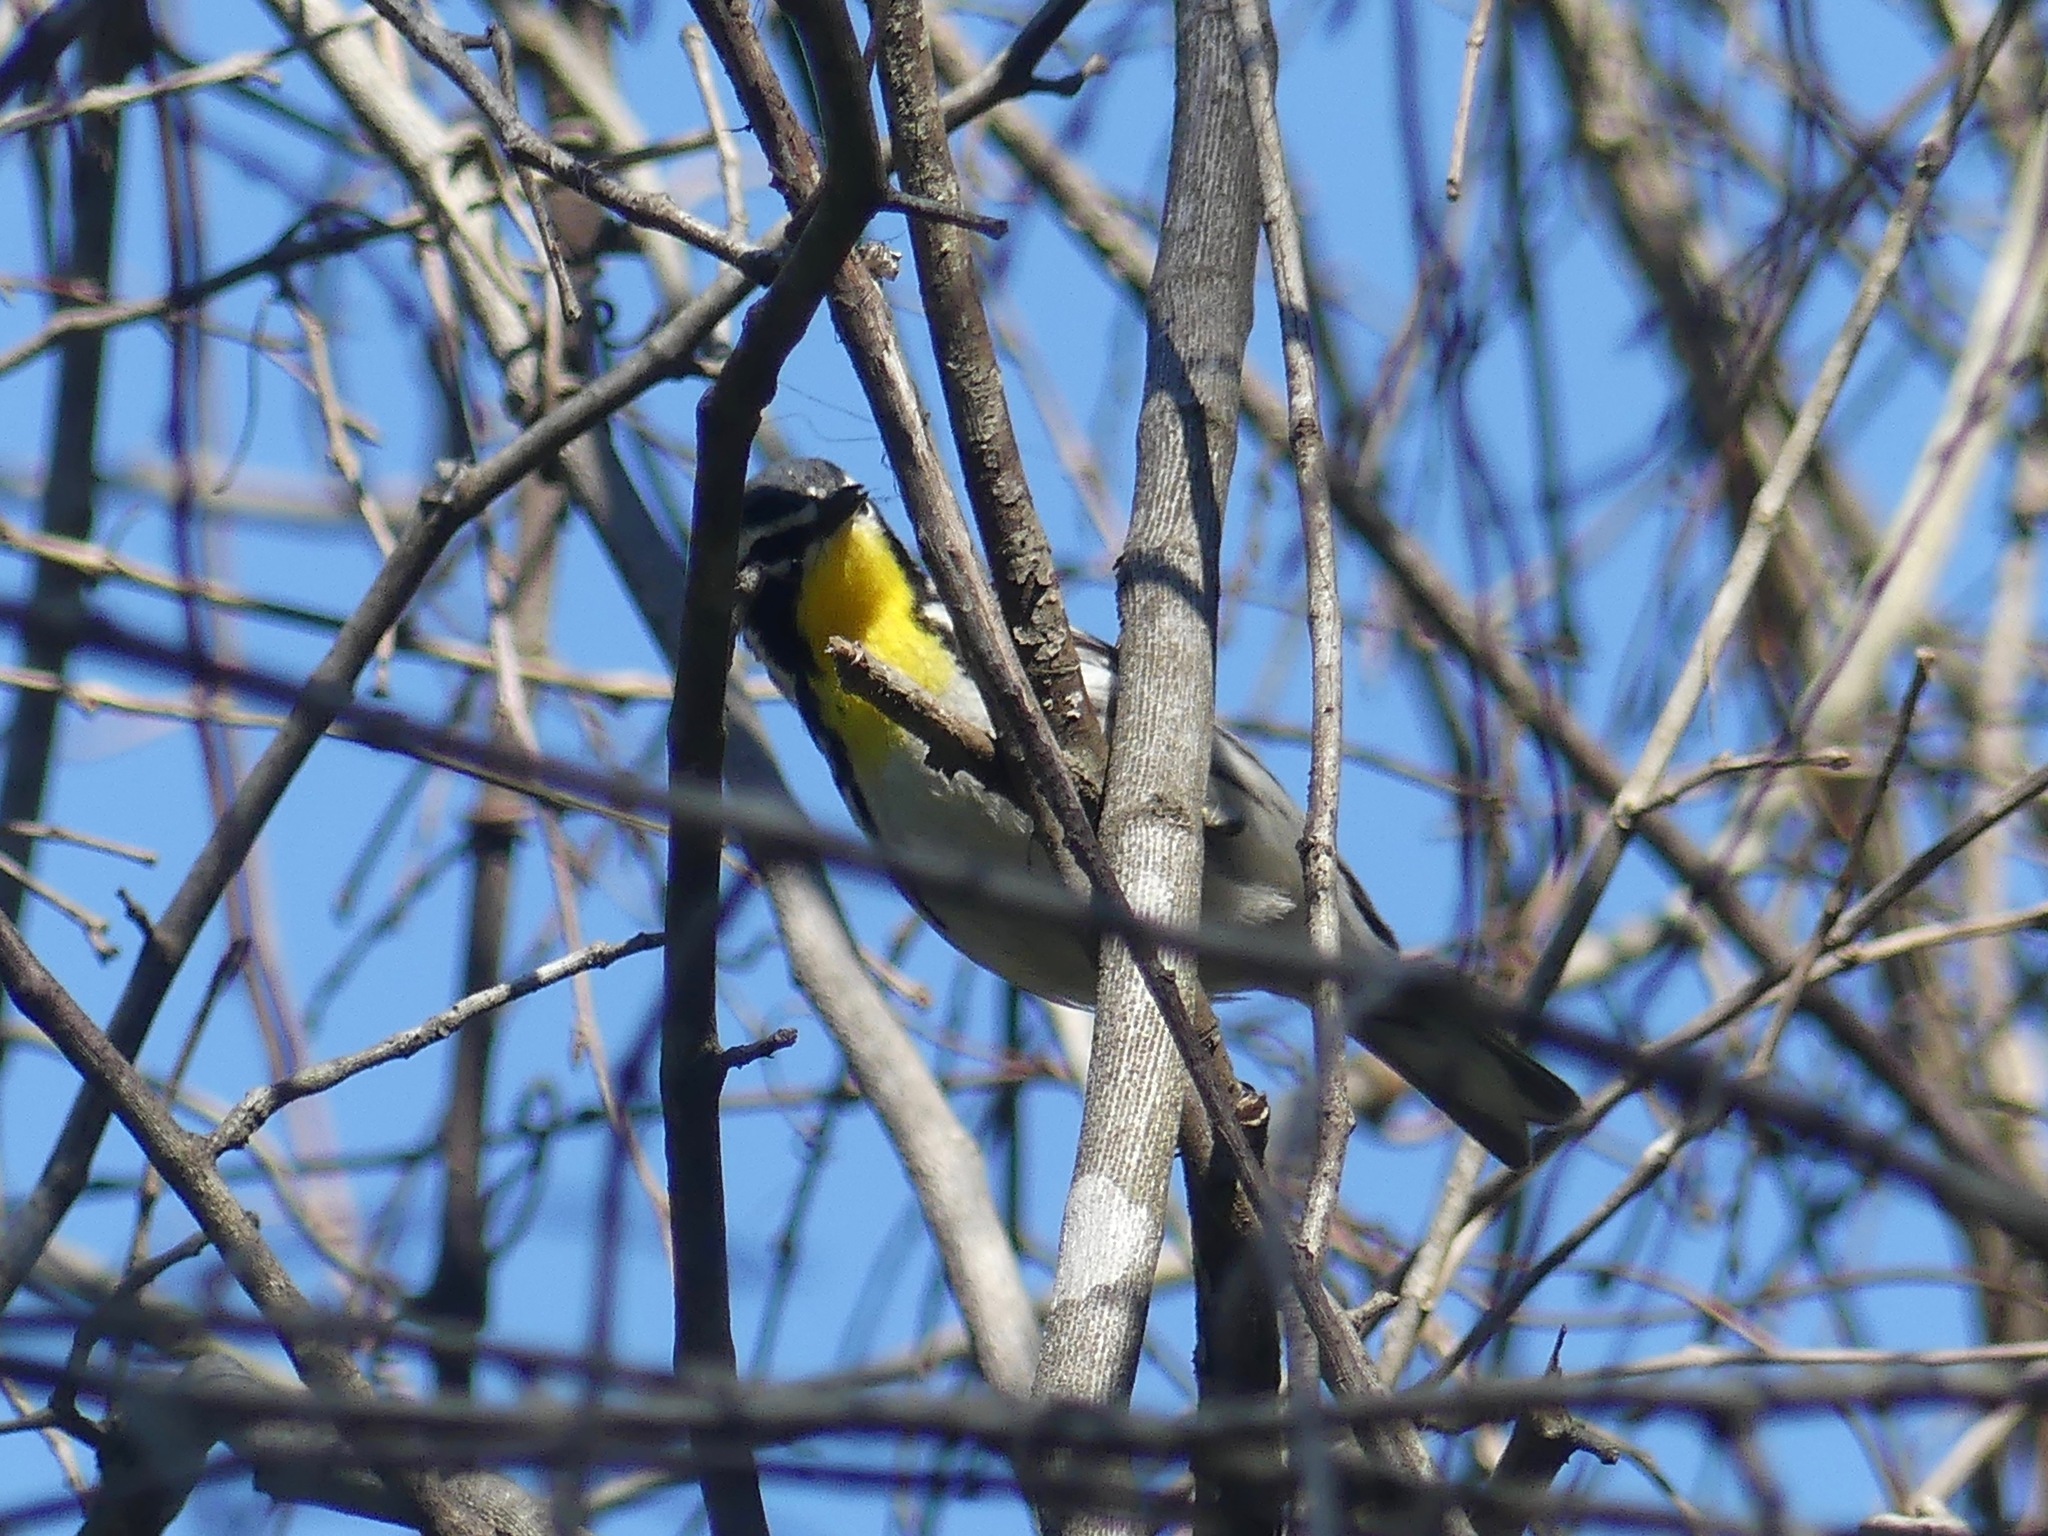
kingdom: Animalia
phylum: Chordata
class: Aves
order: Passeriformes
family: Parulidae
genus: Setophaga
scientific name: Setophaga dominica
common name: Yellow-throated warbler
